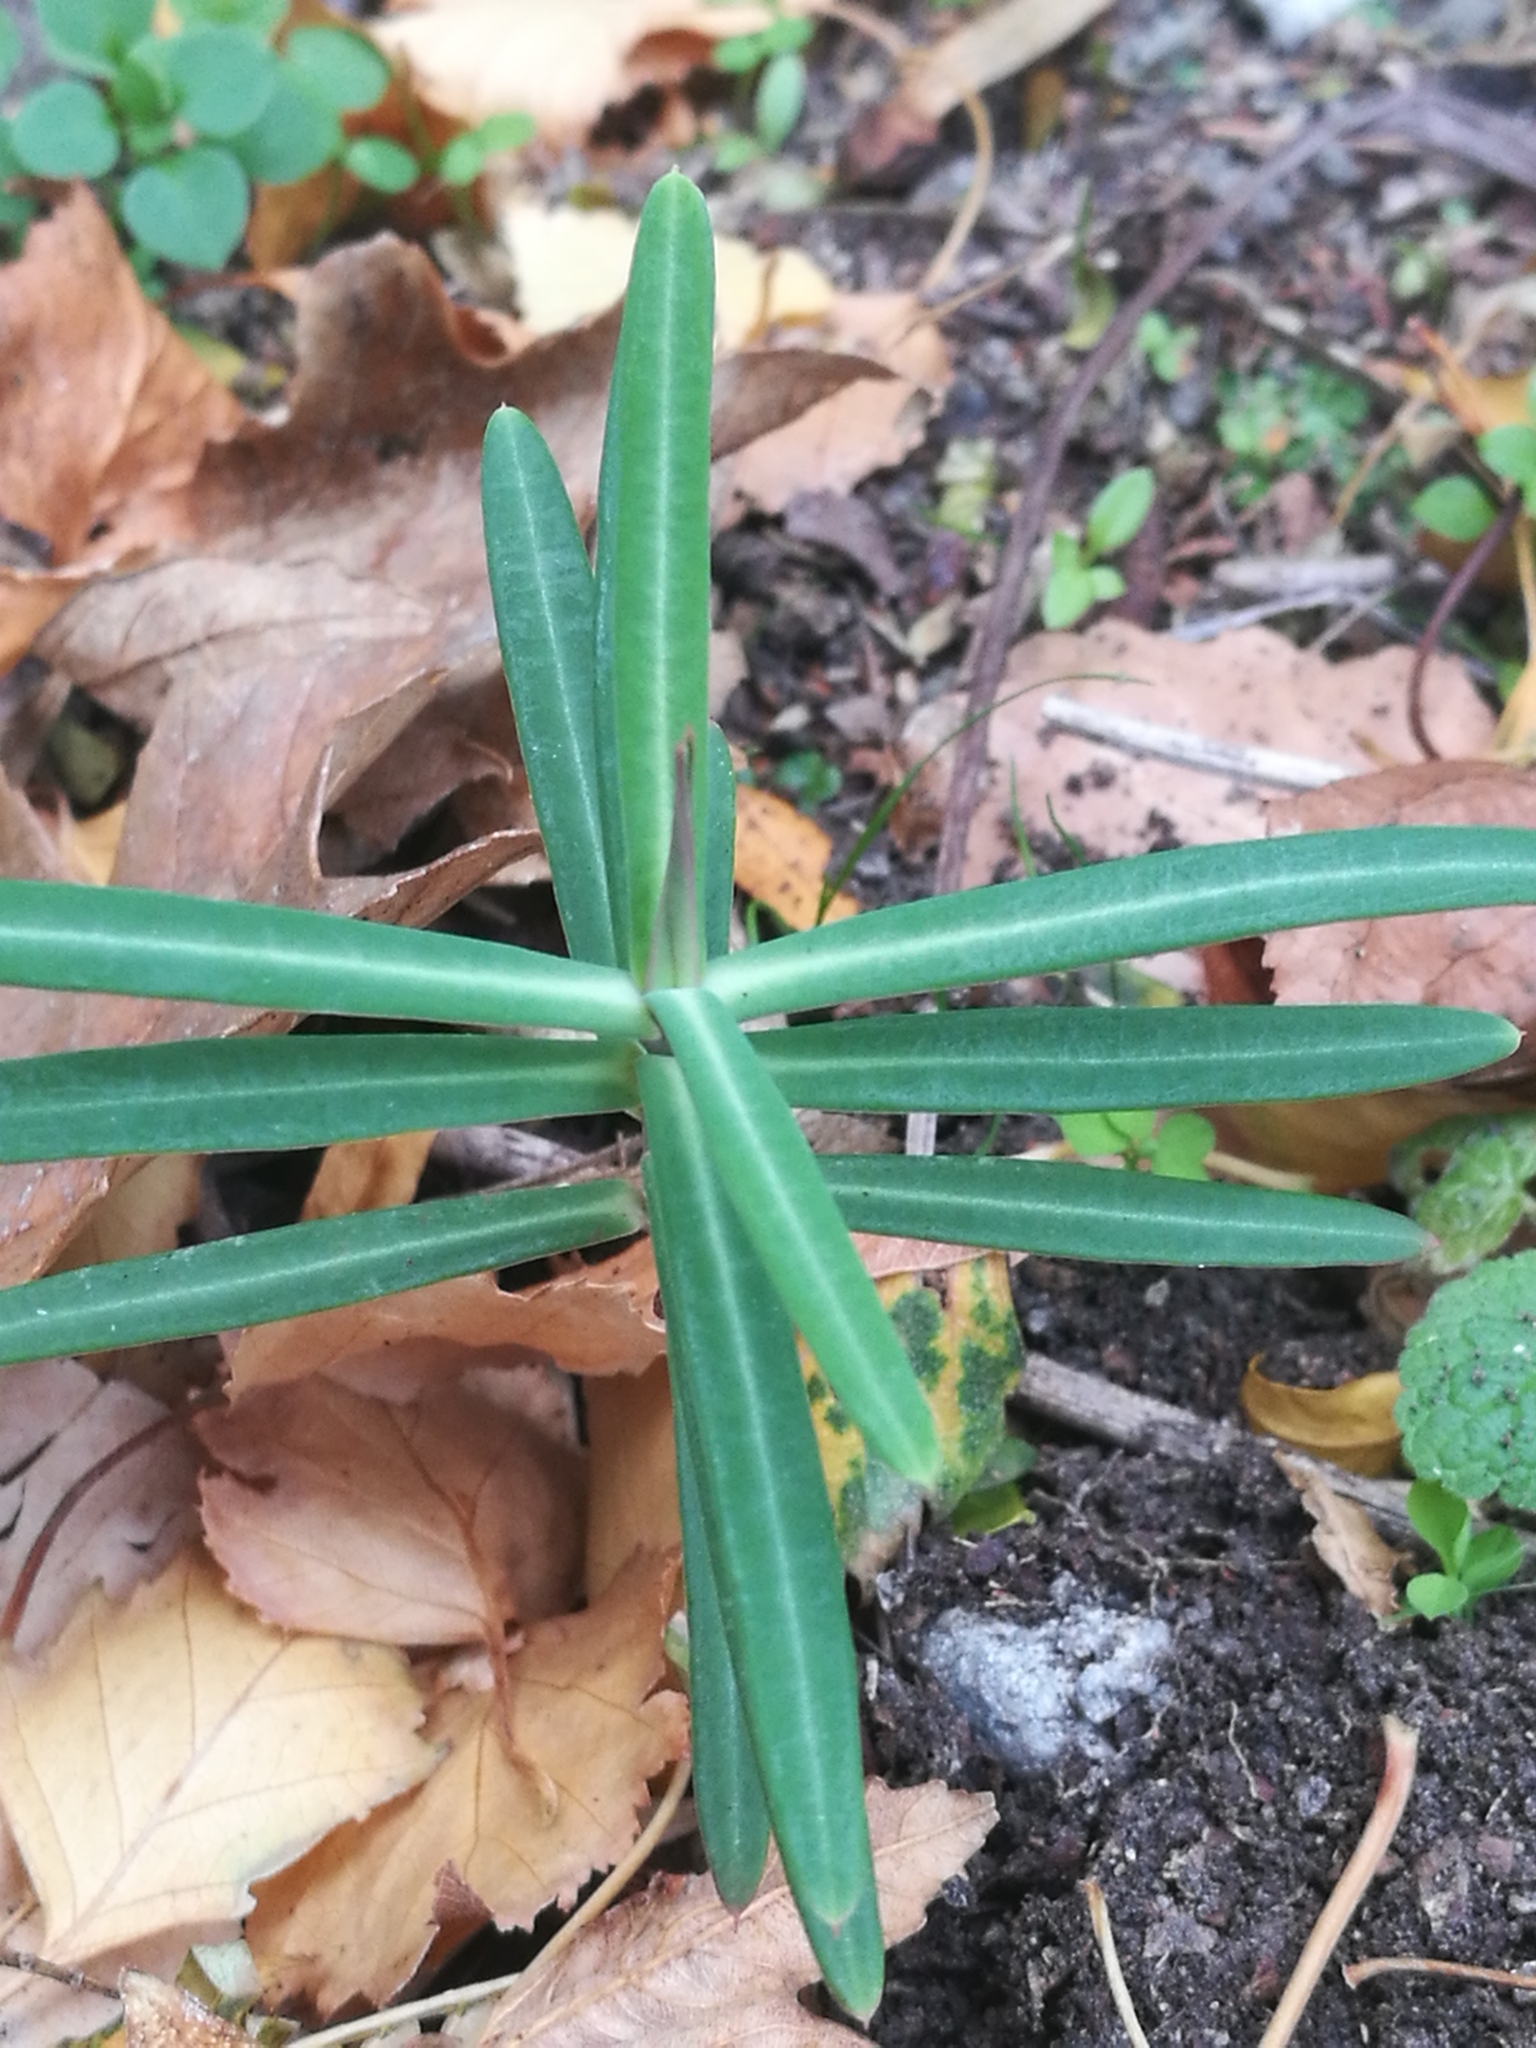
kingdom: Plantae
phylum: Tracheophyta
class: Magnoliopsida
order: Malpighiales
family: Euphorbiaceae
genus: Euphorbia
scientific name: Euphorbia lathyris
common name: Caper spurge
